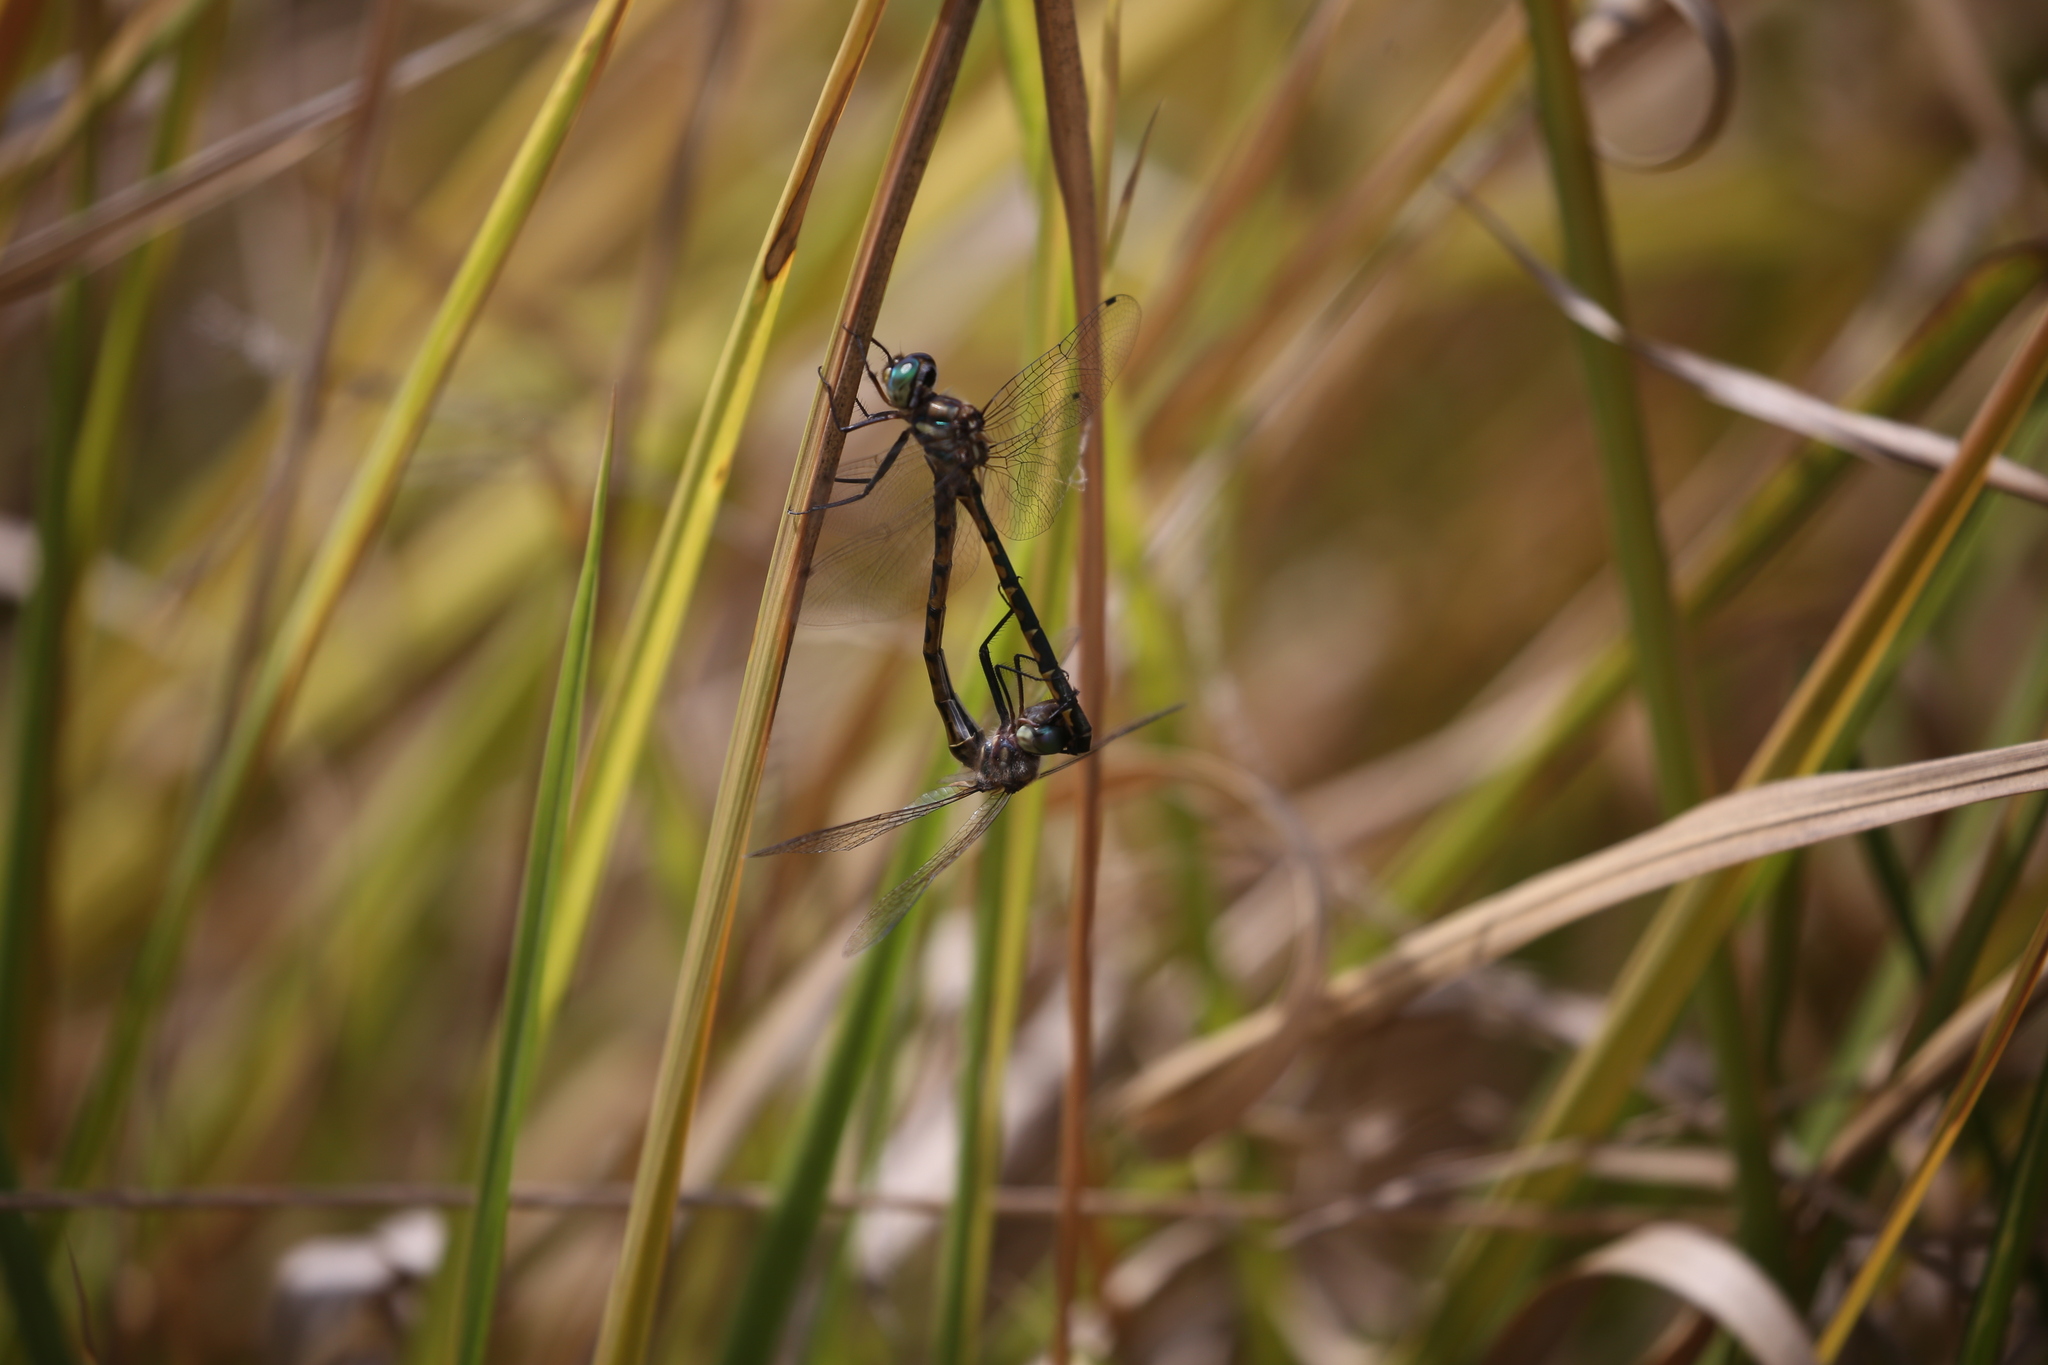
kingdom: Animalia
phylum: Arthropoda
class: Insecta
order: Odonata
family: Corduliidae
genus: Hemicordulia
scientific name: Hemicordulia australiae
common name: Sentry dragonfly
